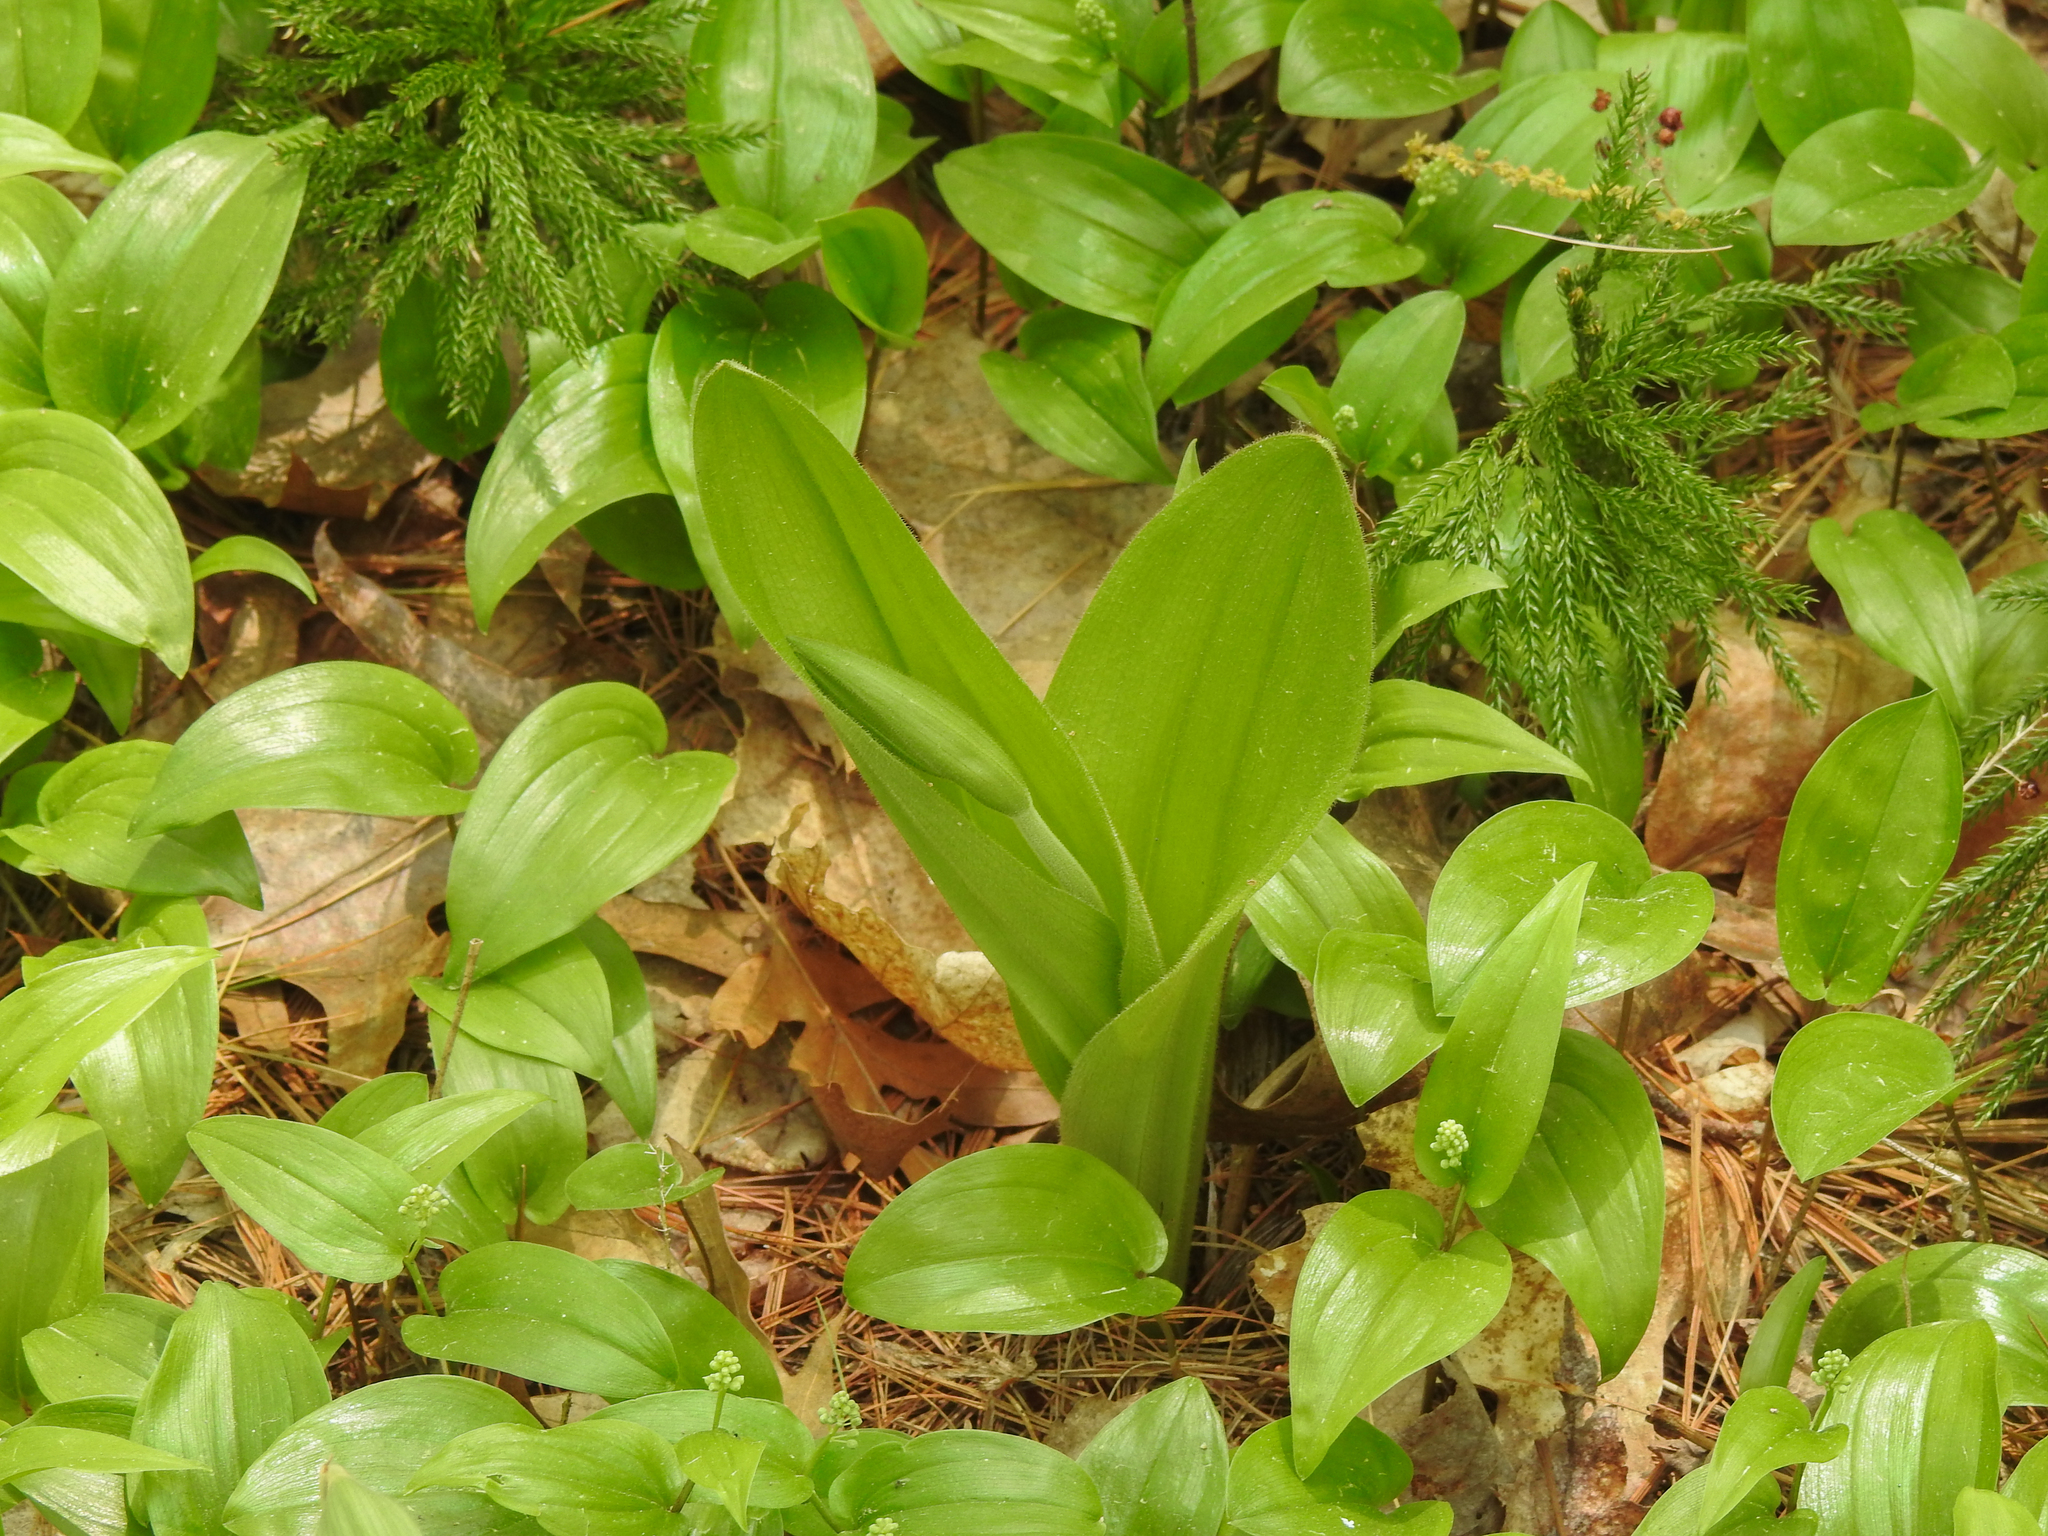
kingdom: Plantae
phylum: Tracheophyta
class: Liliopsida
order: Asparagales
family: Orchidaceae
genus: Cypripedium
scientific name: Cypripedium acaule
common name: Pink lady's-slipper
